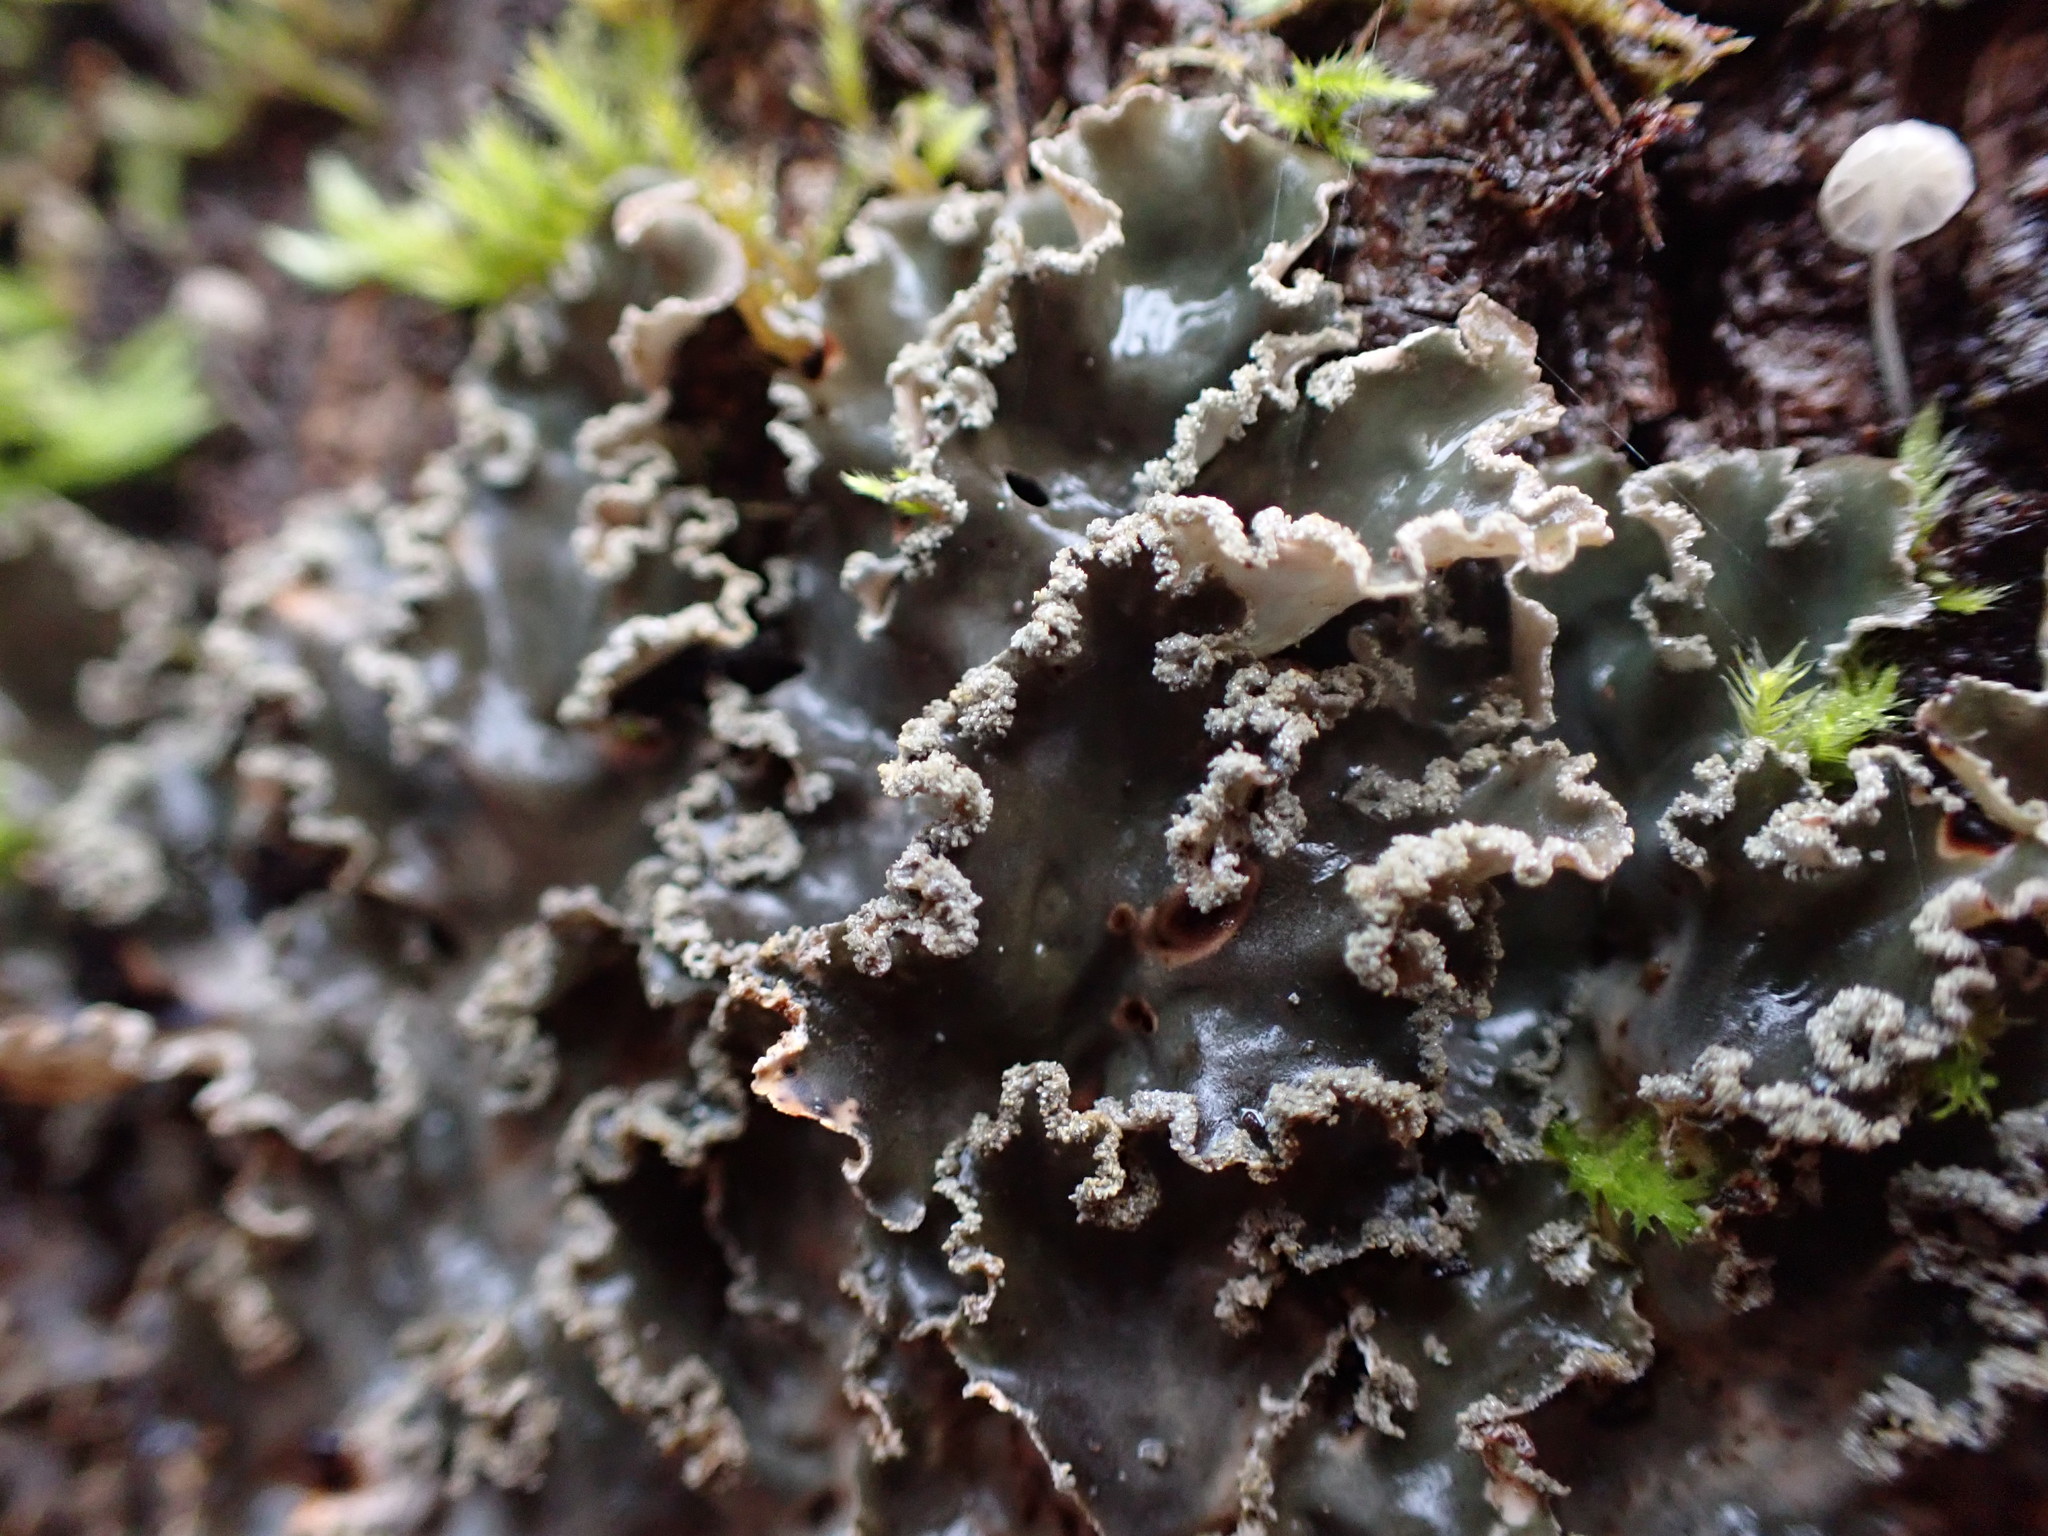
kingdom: Fungi
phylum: Ascomycota
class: Lecanoromycetes
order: Peltigerales
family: Peltigeraceae
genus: Peltigera
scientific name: Peltigera collina
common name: Gritty tree pelt lichen
